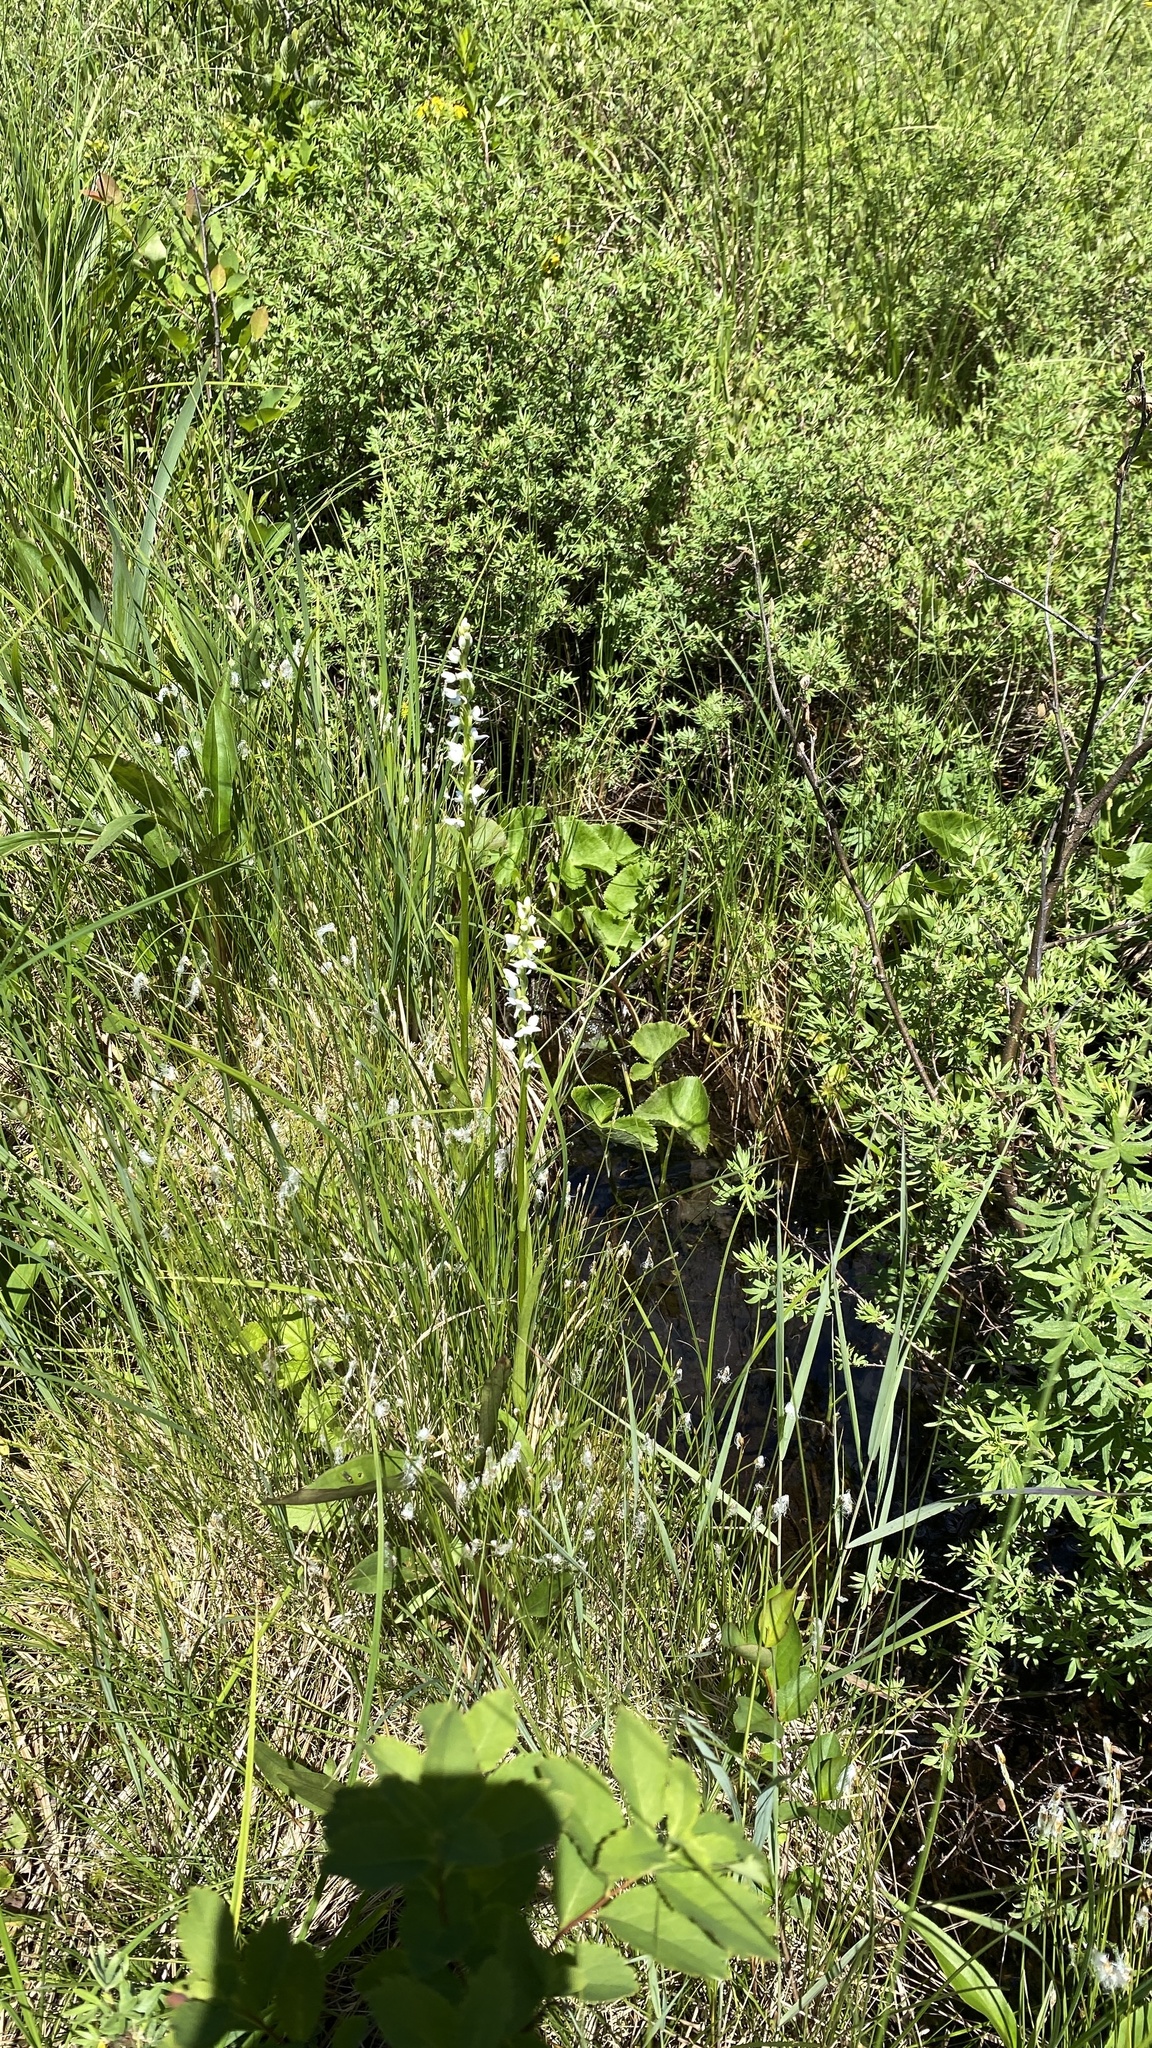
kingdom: Plantae
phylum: Tracheophyta
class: Liliopsida
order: Asparagales
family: Orchidaceae
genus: Platanthera
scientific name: Platanthera dilatata
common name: Bog candles
